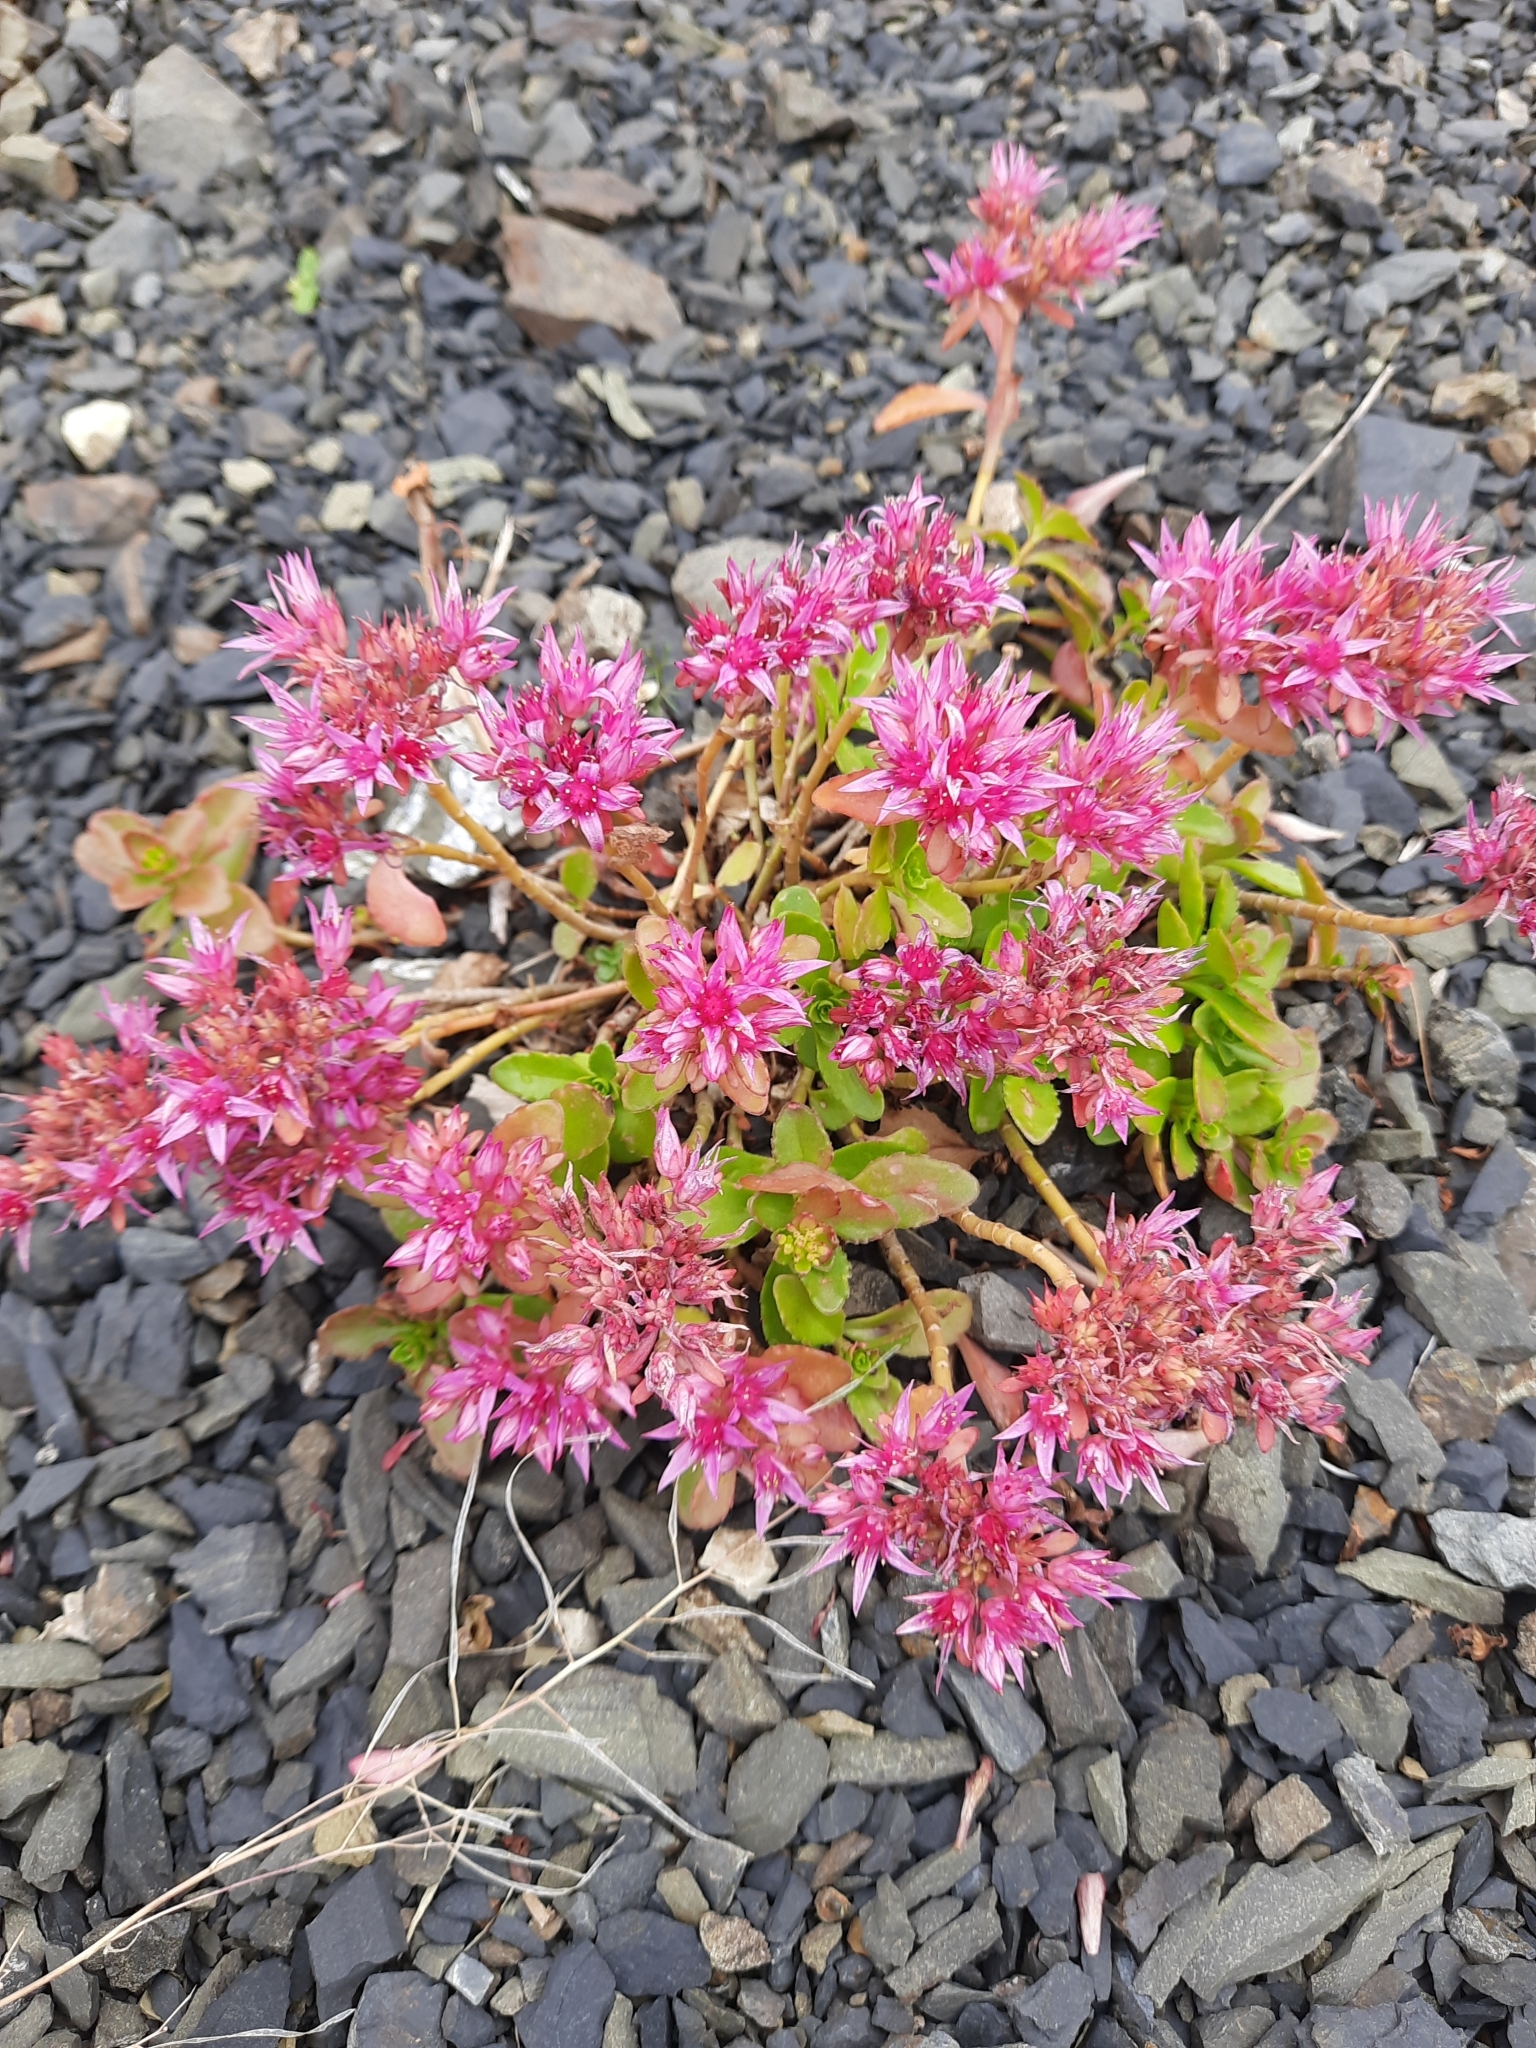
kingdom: Plantae
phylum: Tracheophyta
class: Magnoliopsida
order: Saxifragales
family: Crassulaceae
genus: Phedimus
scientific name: Phedimus spurius
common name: Caucasian stonecrop
